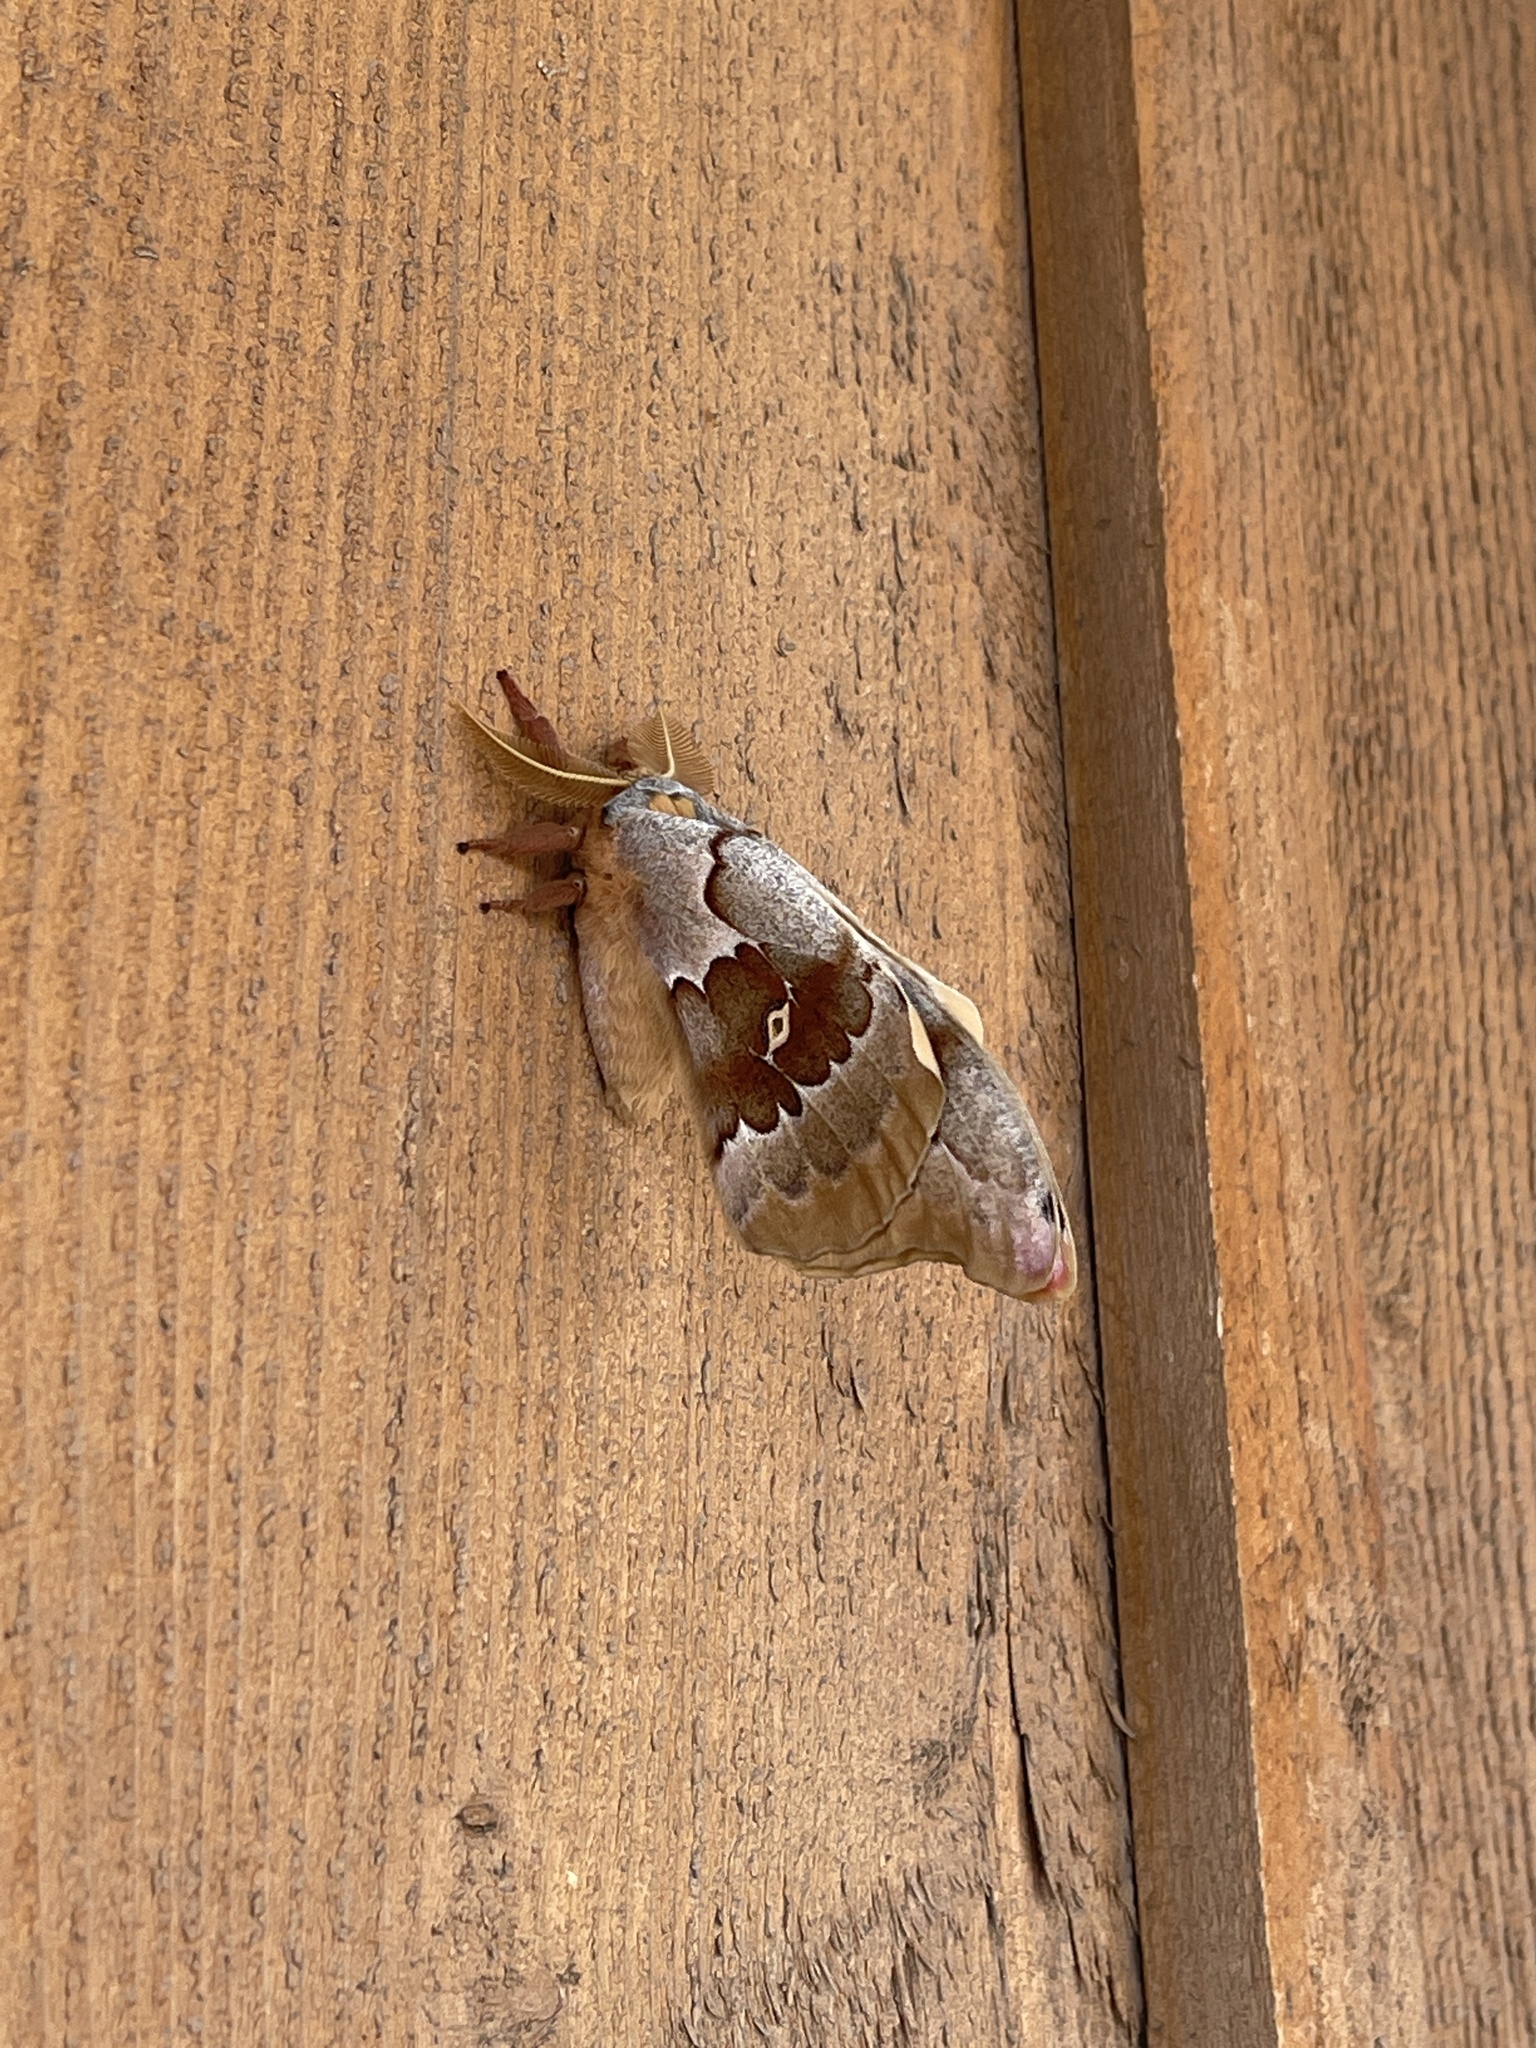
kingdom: Animalia
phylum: Arthropoda
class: Insecta
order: Lepidoptera
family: Saturniidae
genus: Antheraea
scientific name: Antheraea oculea
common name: Arizona polyphemus moth
